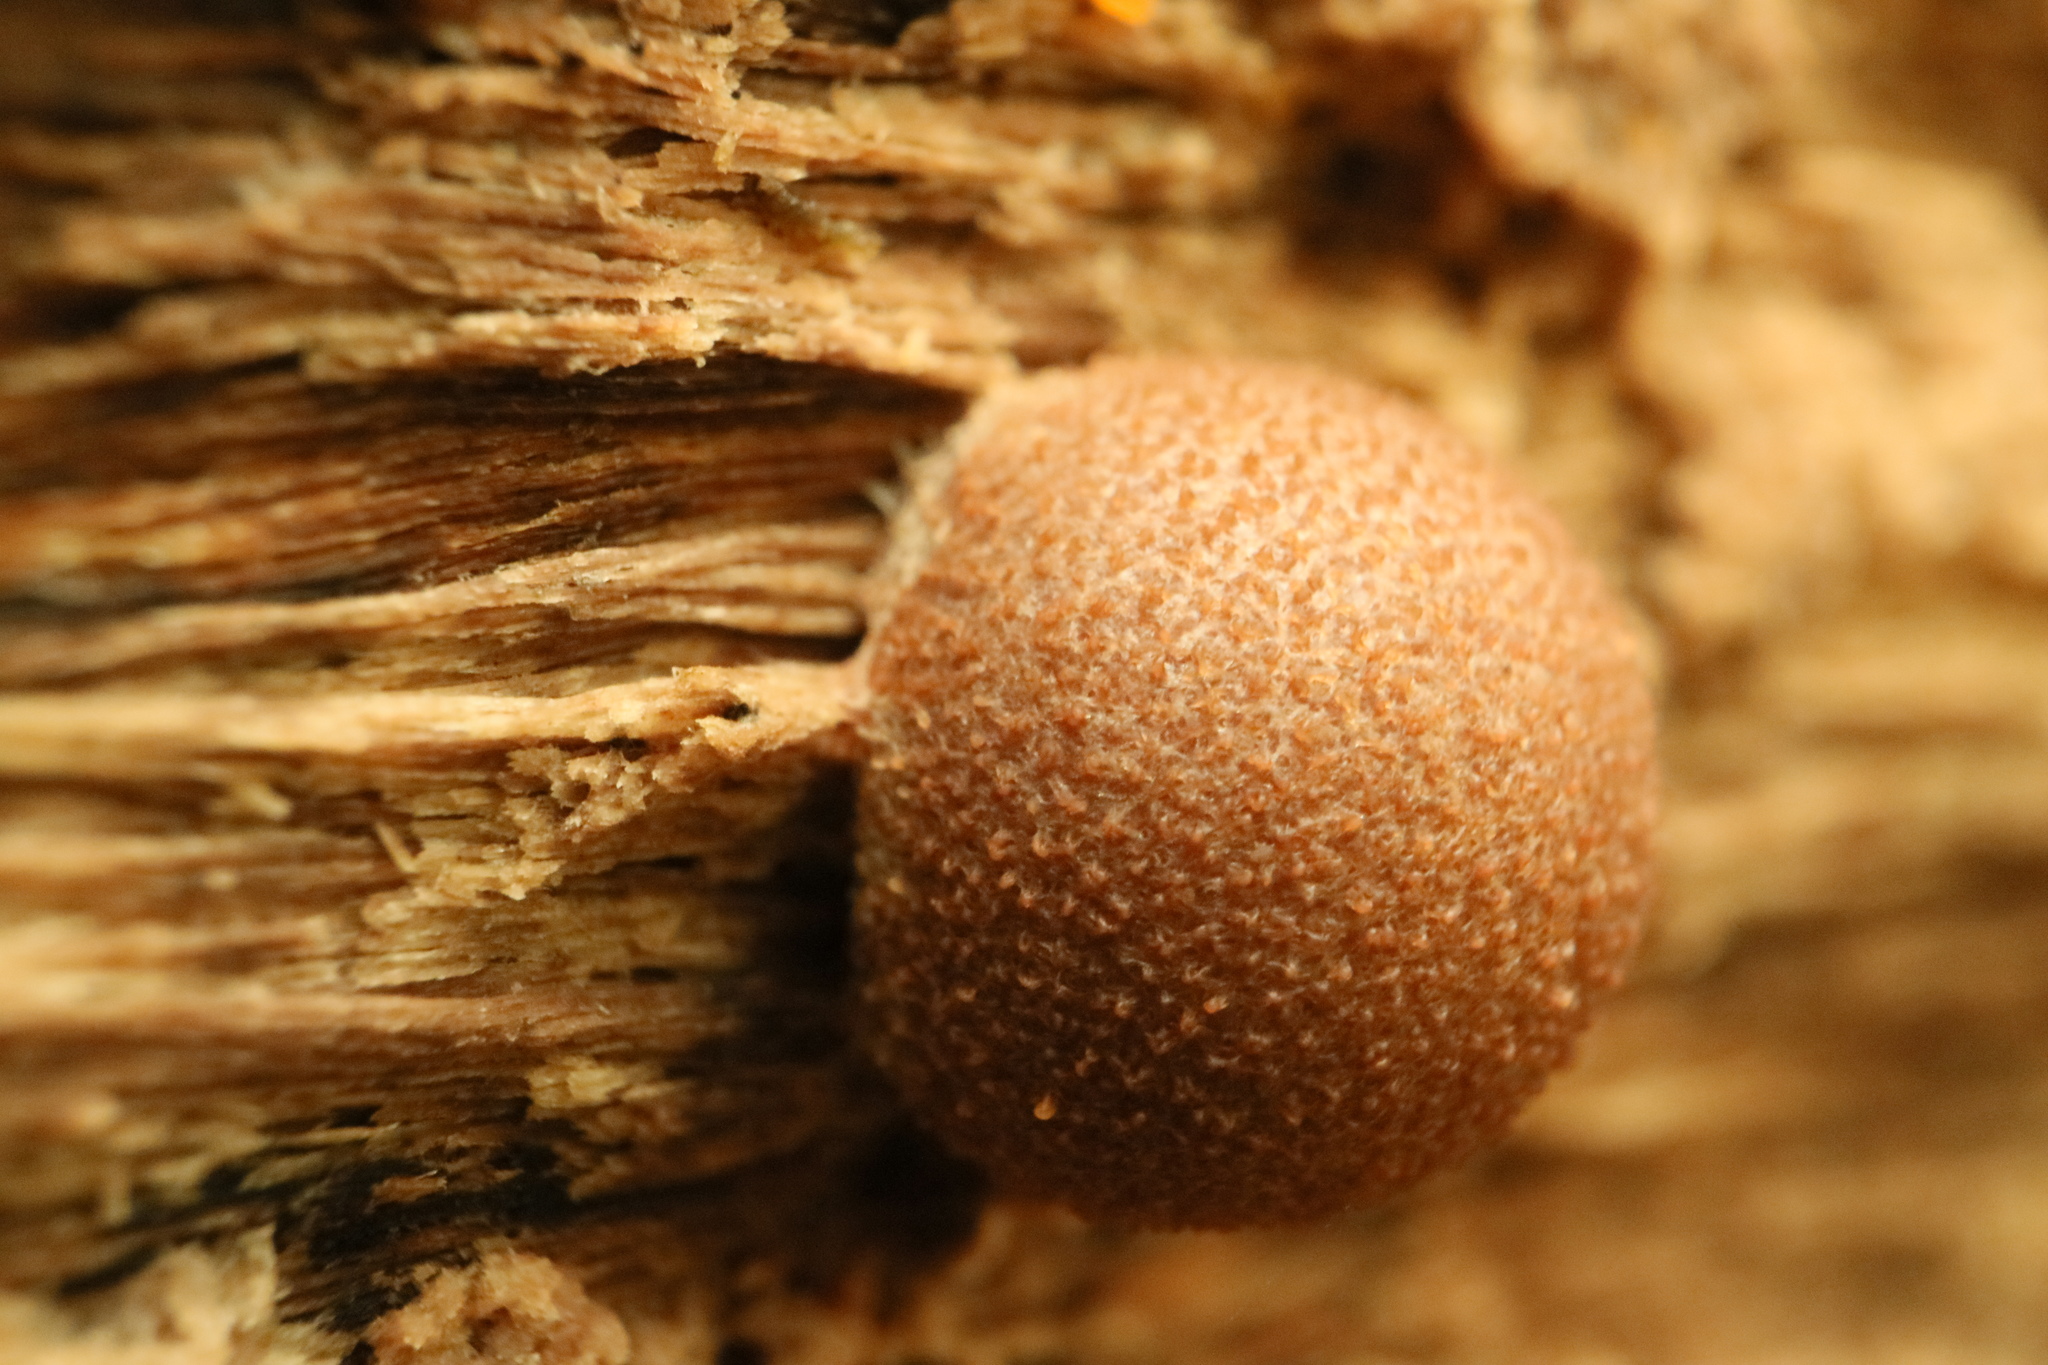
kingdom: Protozoa
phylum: Mycetozoa
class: Myxomycetes
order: Cribrariales
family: Tubiferaceae
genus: Lycogala
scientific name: Lycogala epidendrum
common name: Wolf's milk
